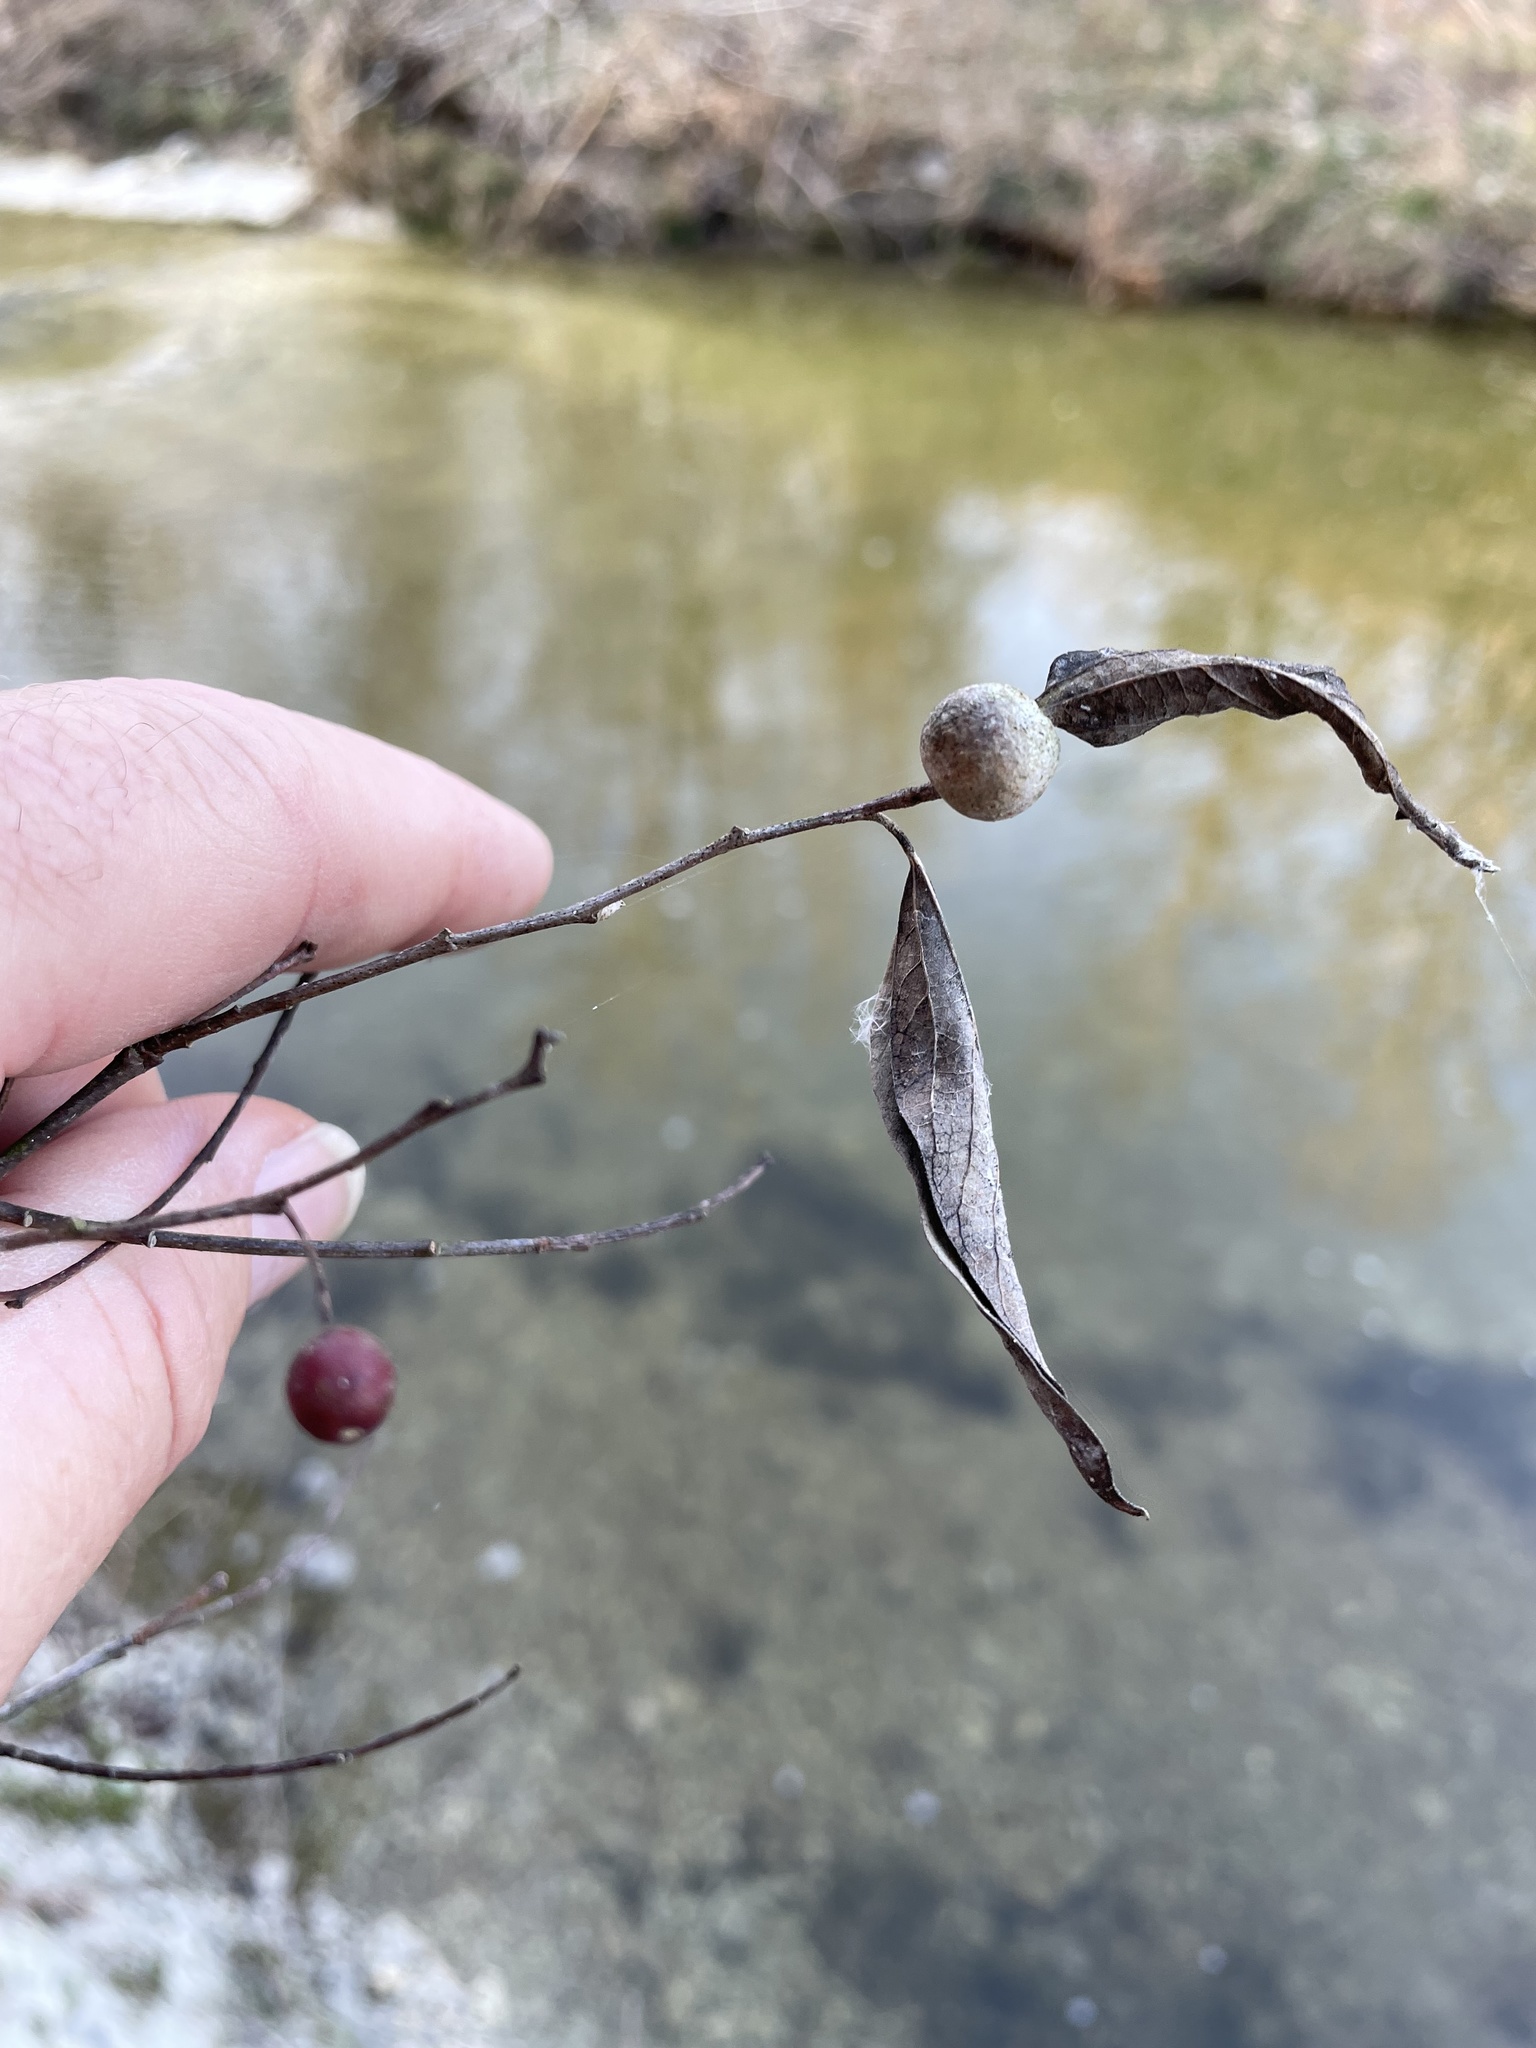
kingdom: Animalia
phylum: Arthropoda
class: Insecta
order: Hemiptera
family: Aphalaridae
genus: Pachypsylla
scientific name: Pachypsylla venusta
